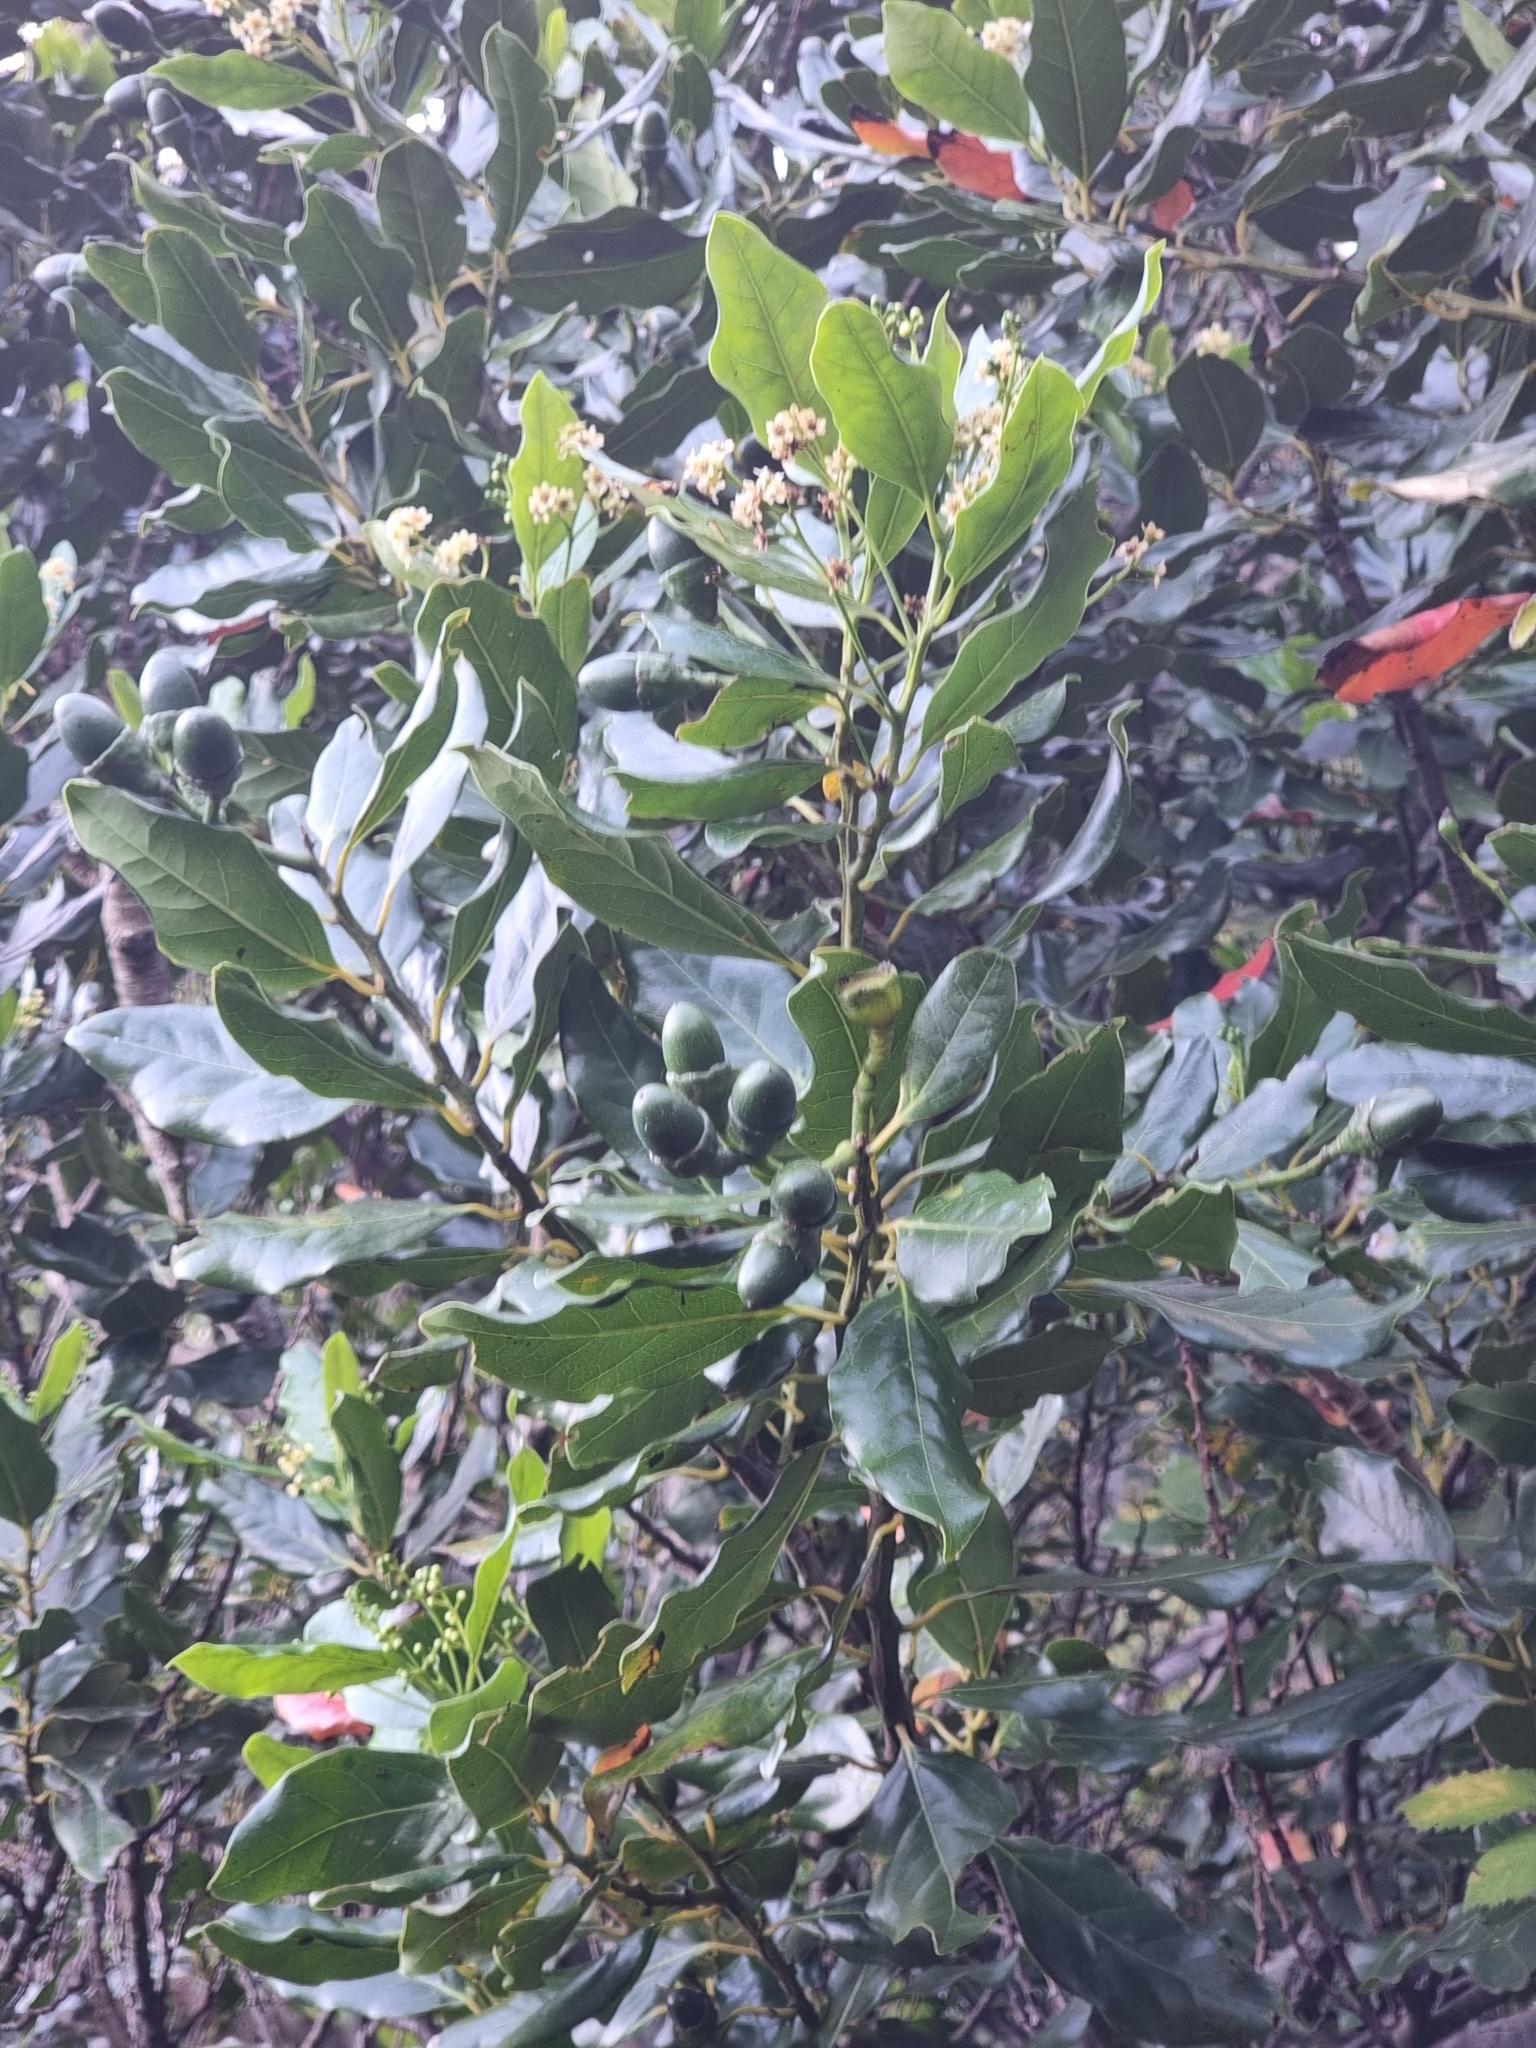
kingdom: Plantae
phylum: Tracheophyta
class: Magnoliopsida
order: Laurales
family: Lauraceae
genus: Mespilodaphne
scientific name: Mespilodaphne foetens
